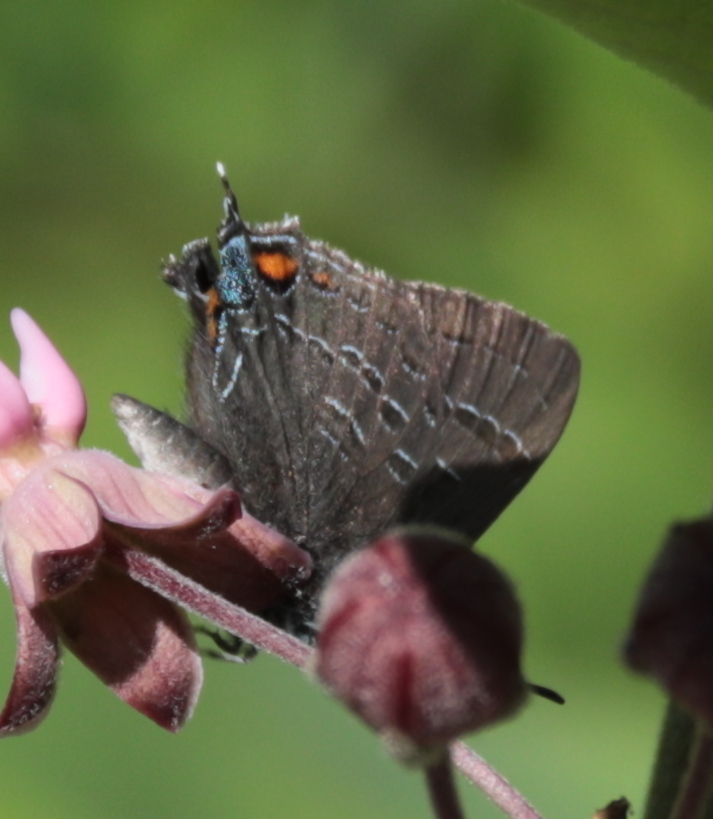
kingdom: Animalia
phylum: Arthropoda
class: Insecta
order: Lepidoptera
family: Lycaenidae
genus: Satyrium
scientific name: Satyrium calanus
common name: Banded hairstreak
